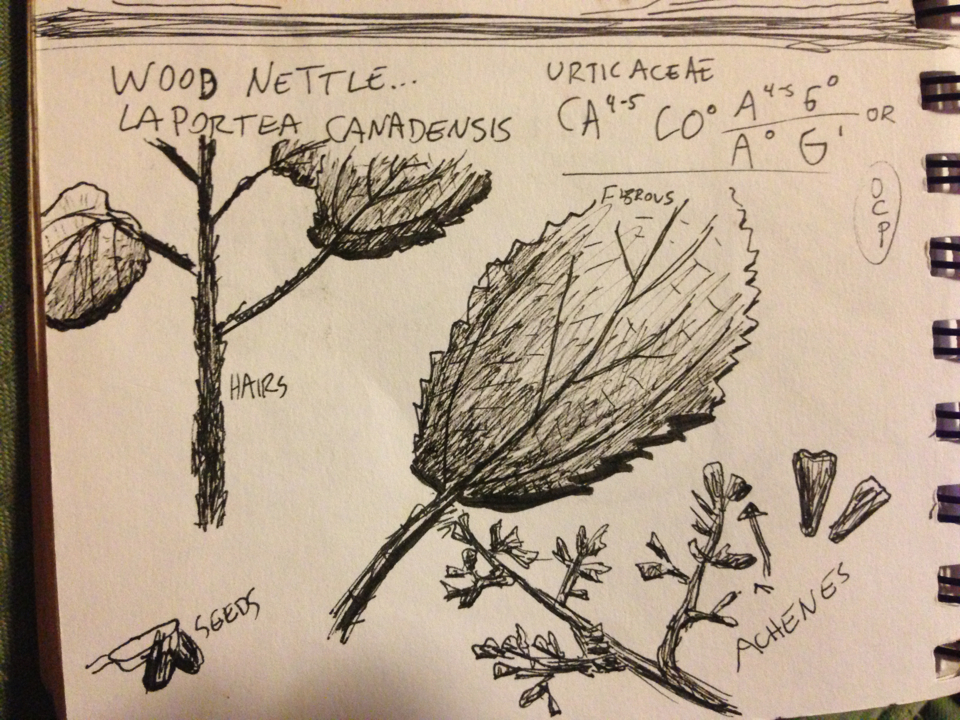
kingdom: Plantae
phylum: Tracheophyta
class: Magnoliopsida
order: Rosales
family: Urticaceae
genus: Laportea
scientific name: Laportea canadensis
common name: Canada nettle
